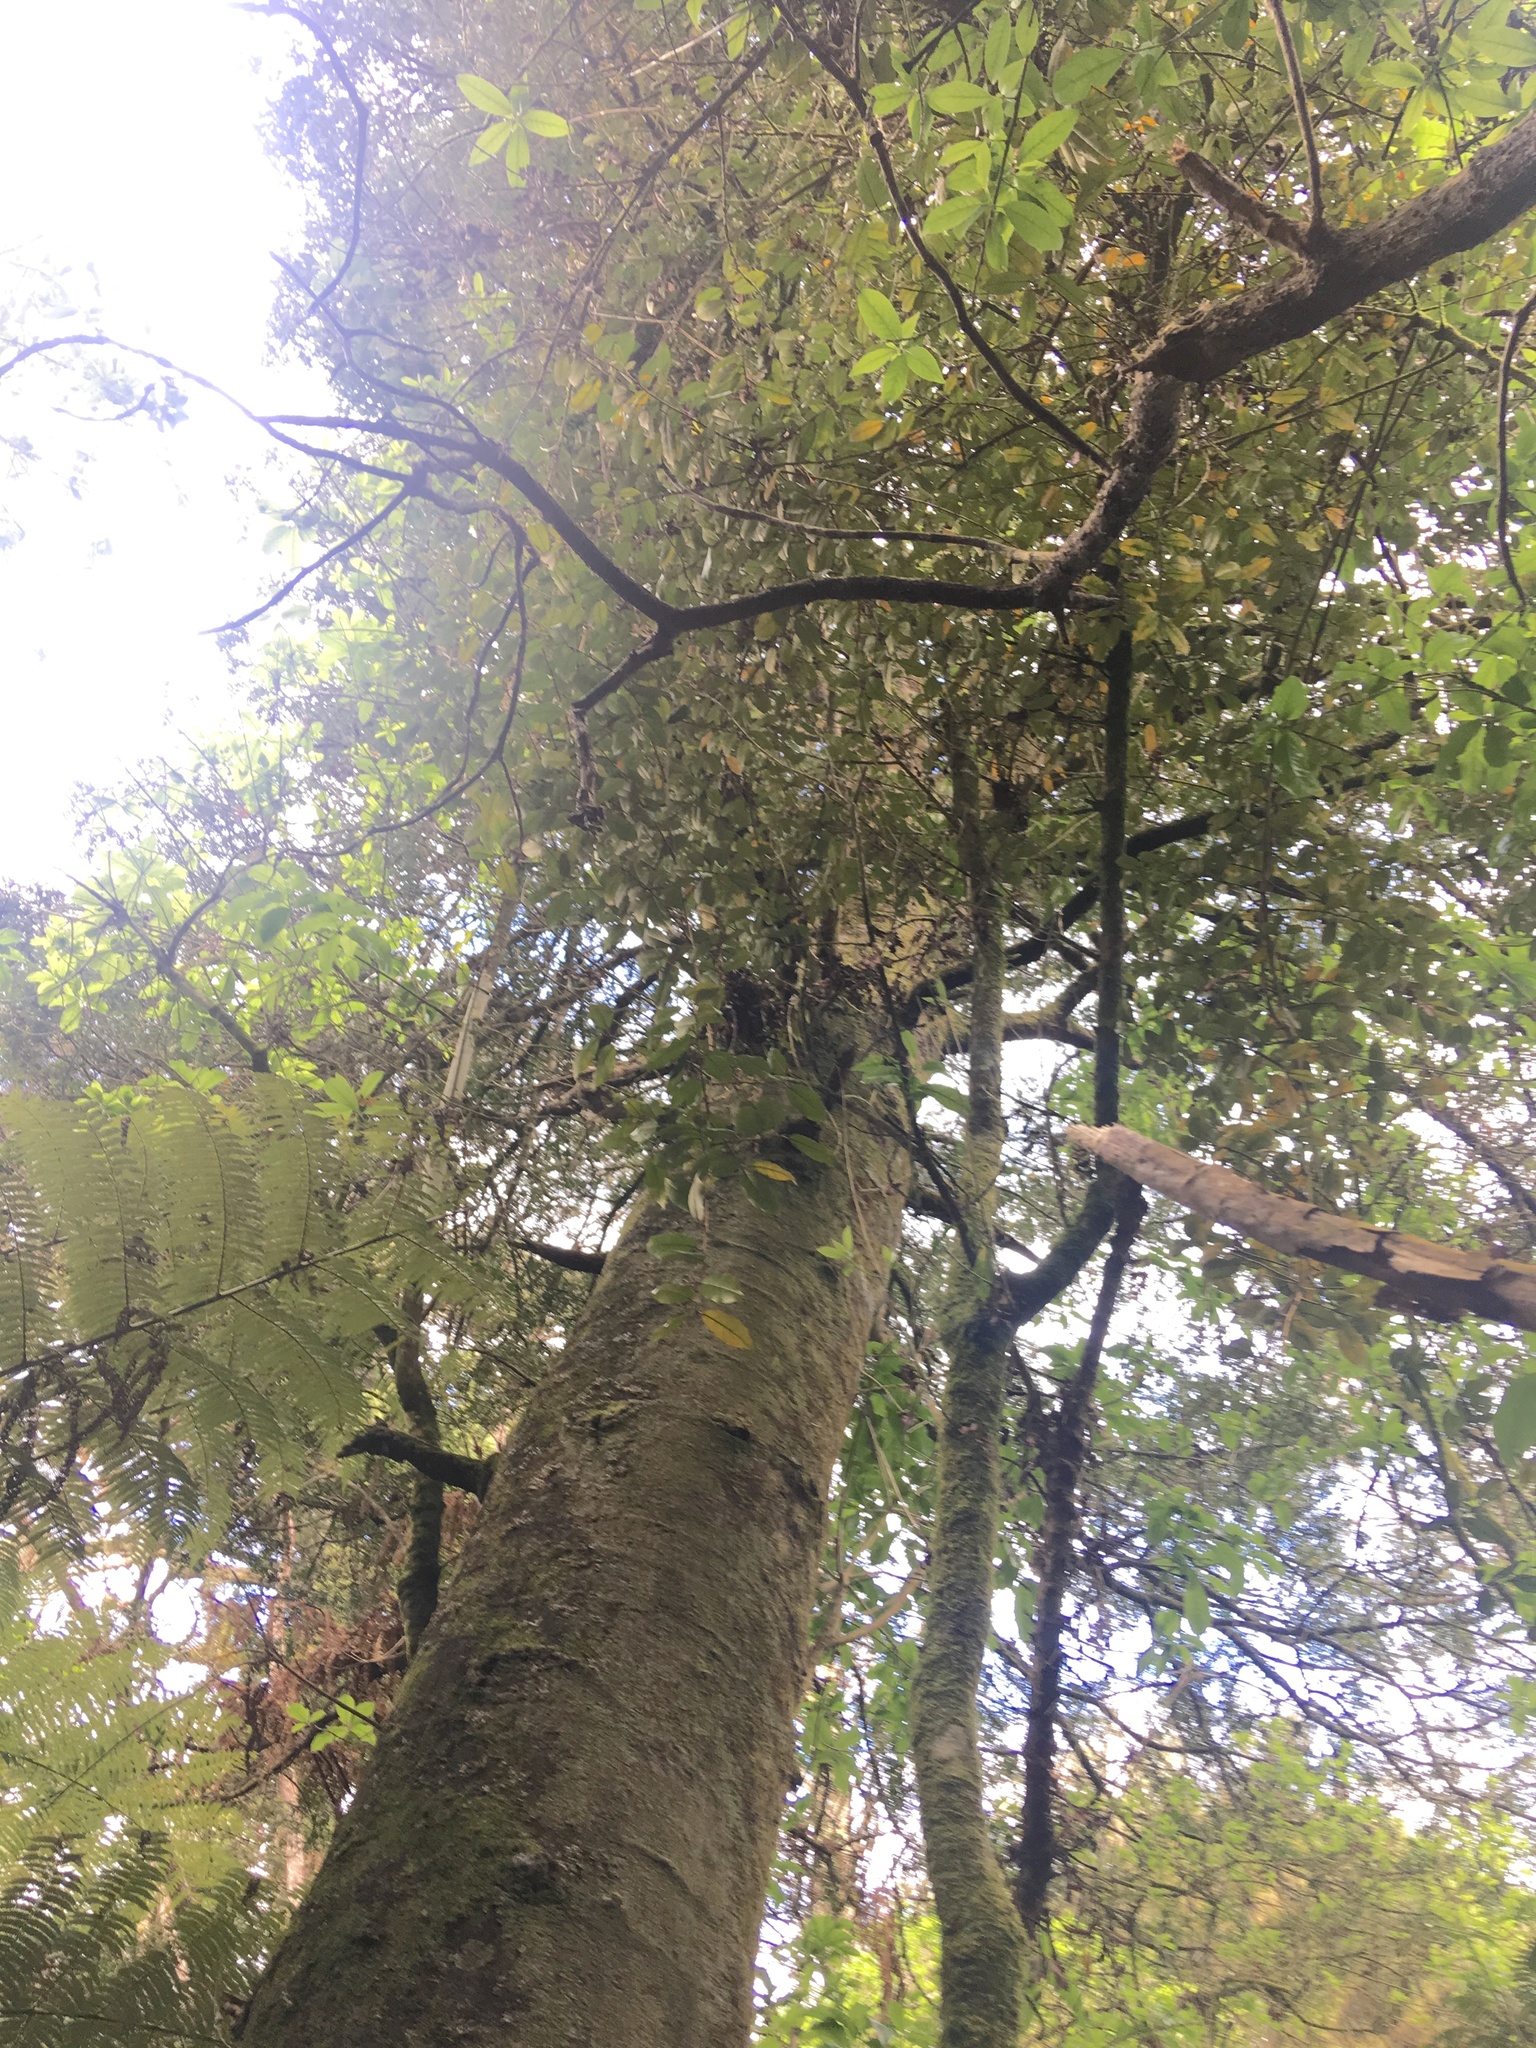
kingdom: Plantae
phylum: Tracheophyta
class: Pinopsida
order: Pinales
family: Phyllocladaceae
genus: Phyllocladus
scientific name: Phyllocladus trichomanoides
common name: Celery pine
